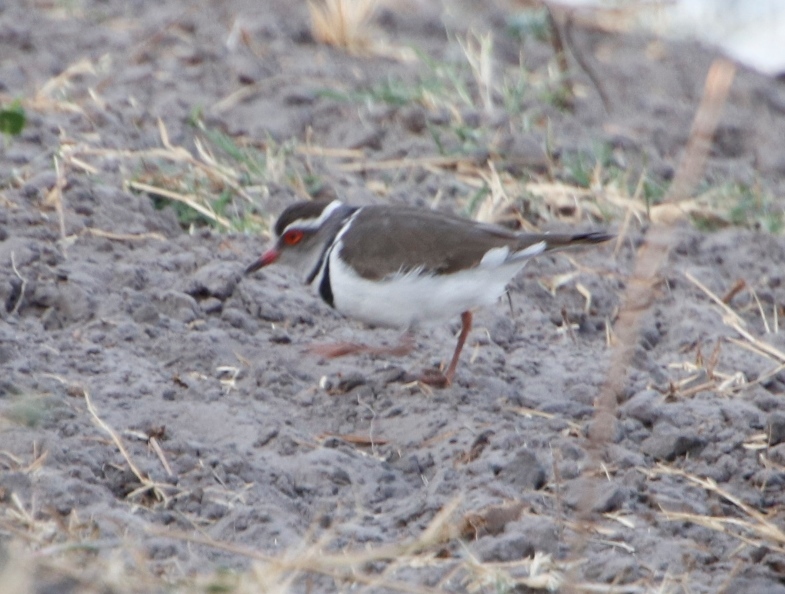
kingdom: Animalia
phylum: Chordata
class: Aves
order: Charadriiformes
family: Charadriidae
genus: Charadrius
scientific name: Charadrius tricollaris
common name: Three-banded plover
